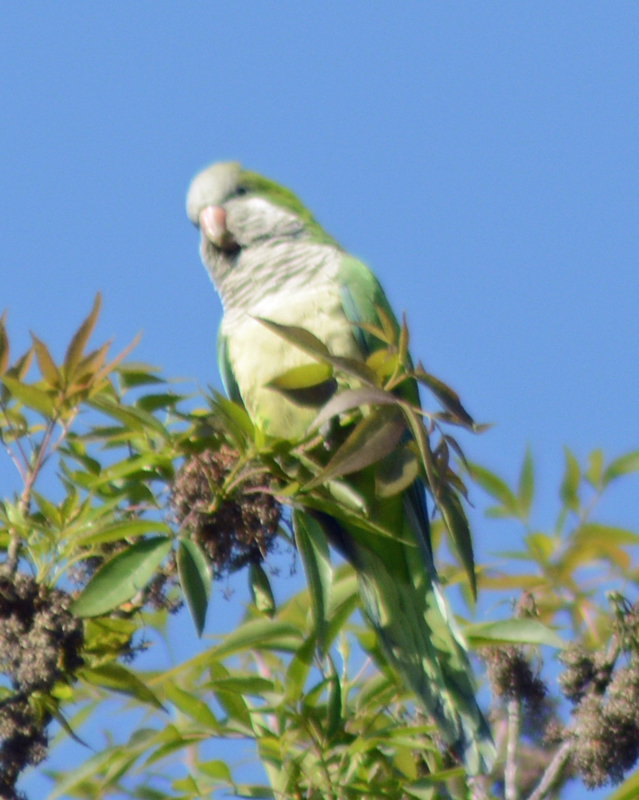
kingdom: Animalia
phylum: Chordata
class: Aves
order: Psittaciformes
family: Psittacidae
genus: Myiopsitta
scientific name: Myiopsitta monachus
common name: Monk parakeet
